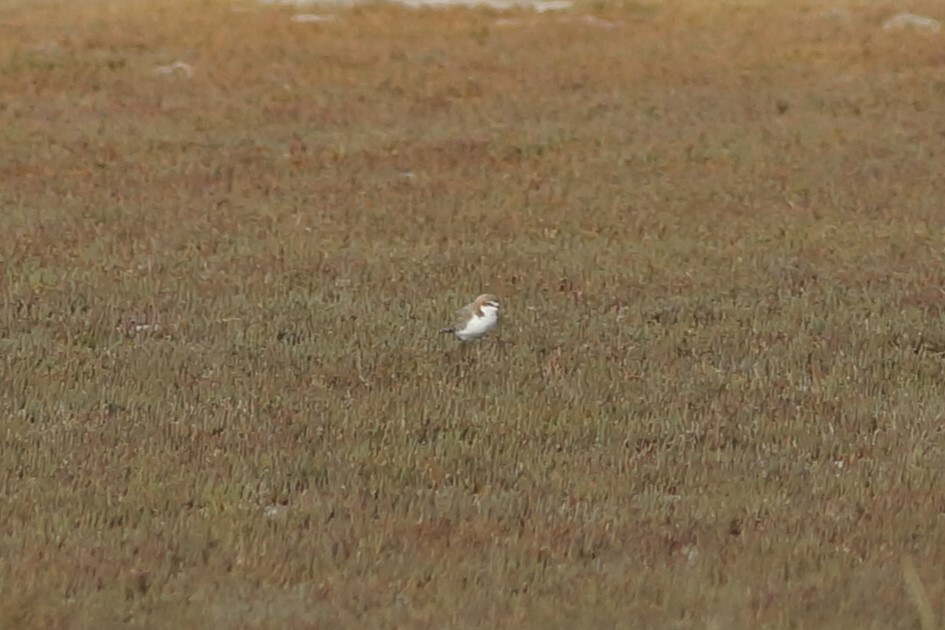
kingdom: Animalia
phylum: Chordata
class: Aves
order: Charadriiformes
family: Charadriidae
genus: Anarhynchus
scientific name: Anarhynchus
